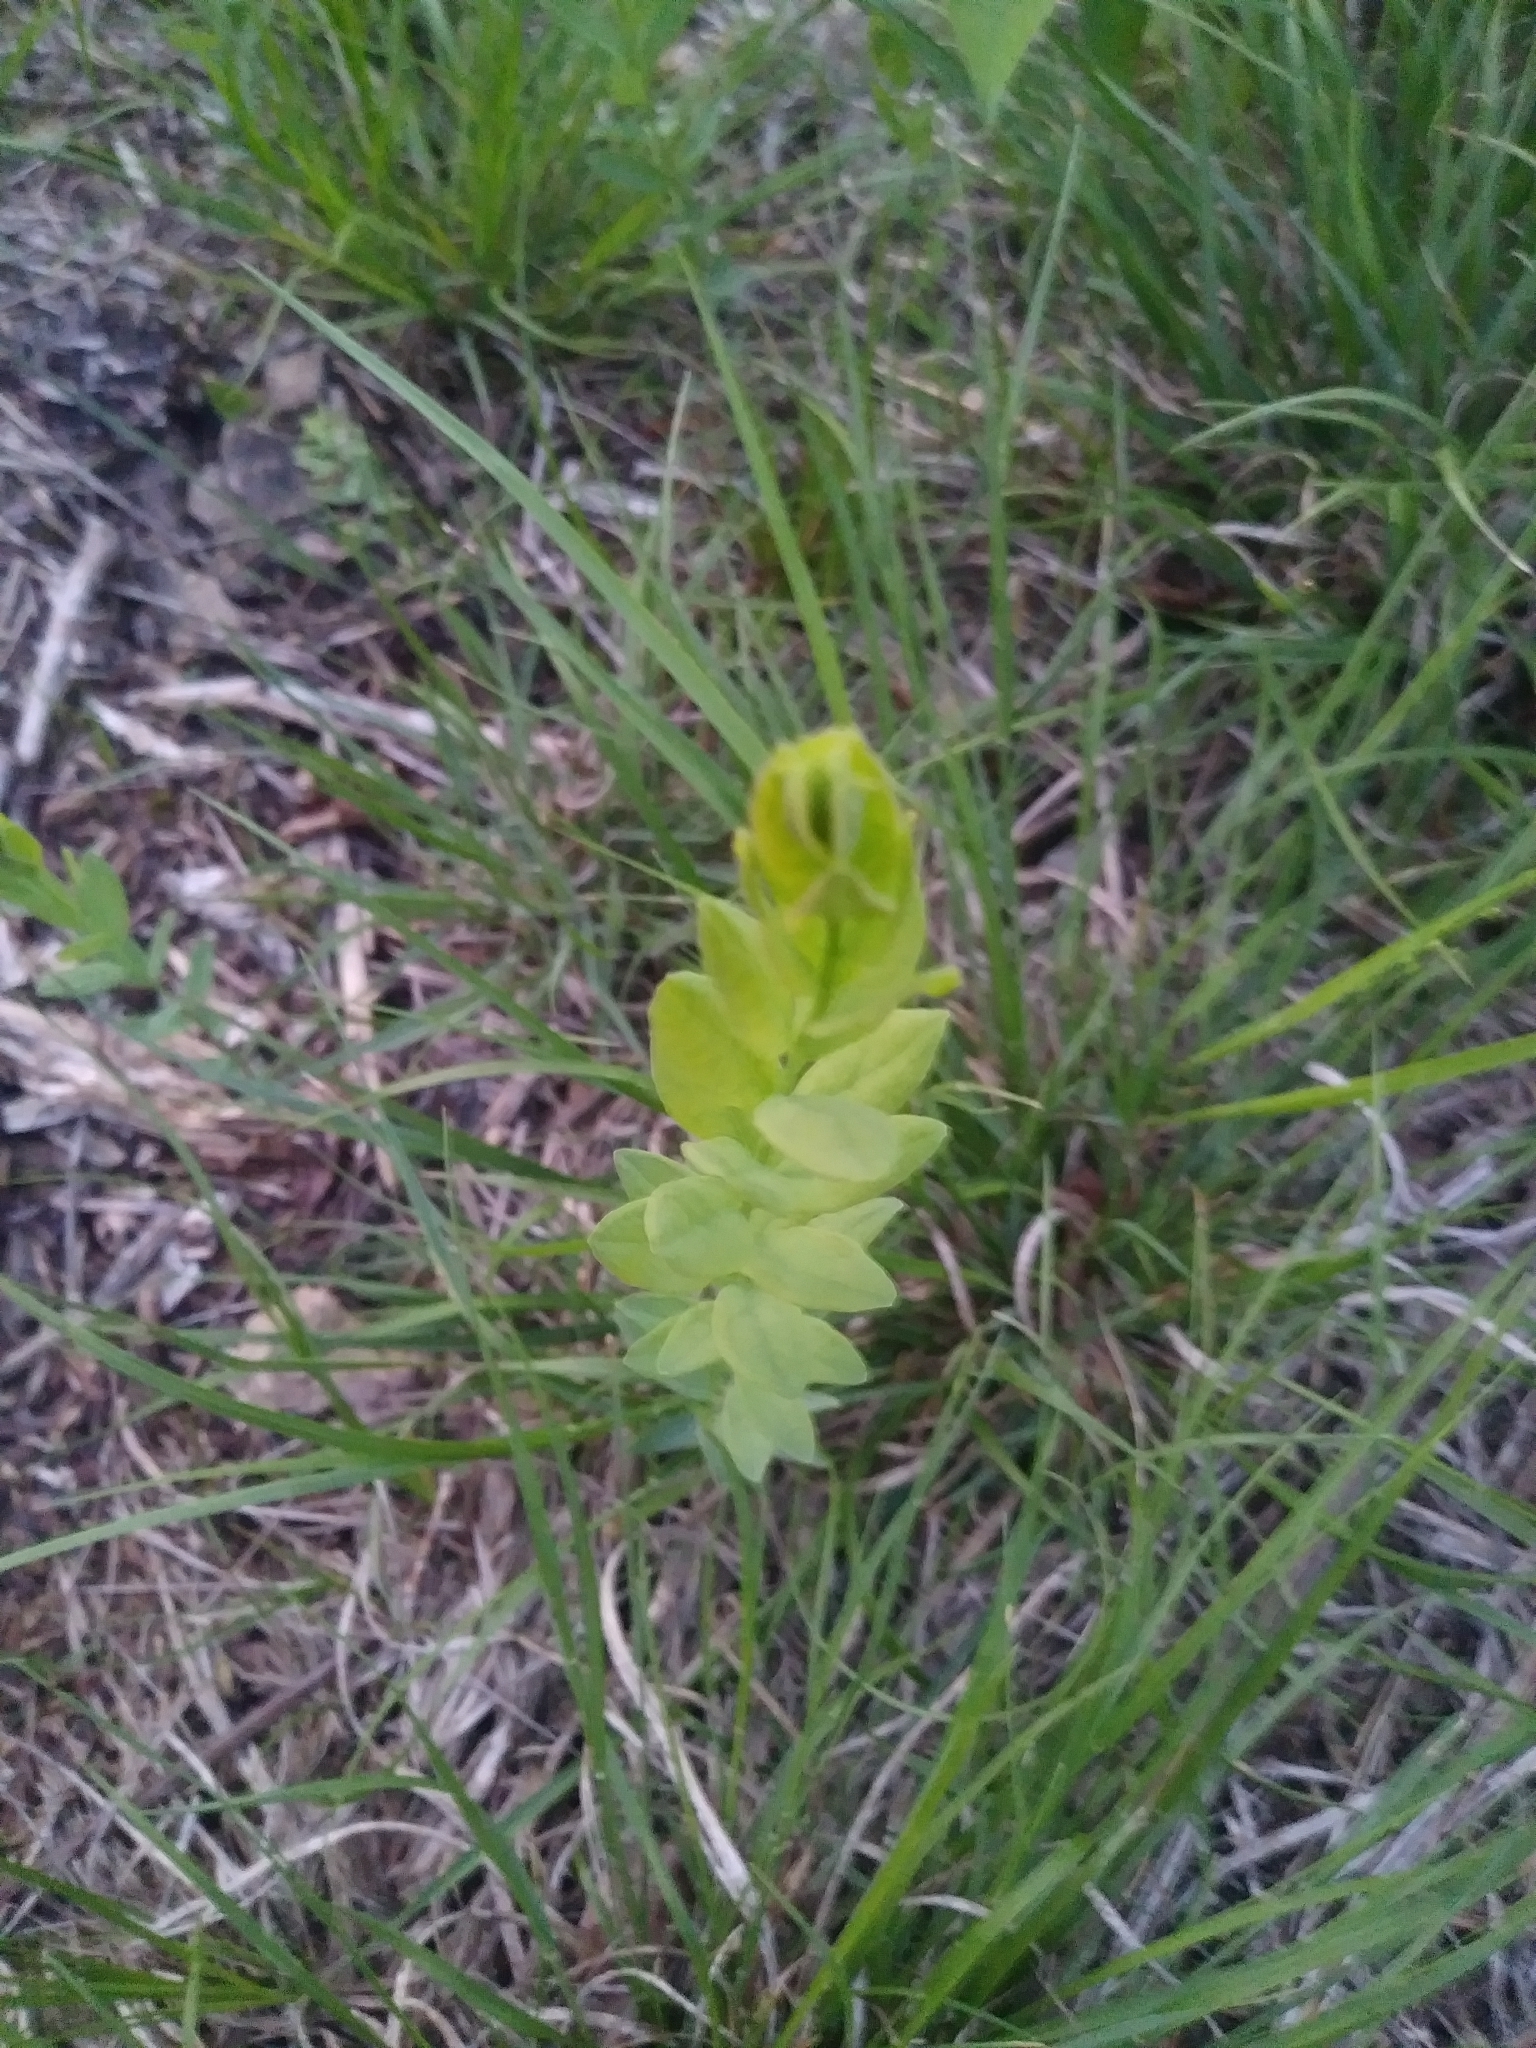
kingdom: Plantae
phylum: Tracheophyta
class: Magnoliopsida
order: Santalales
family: Comandraceae
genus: Comandra
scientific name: Comandra umbellata
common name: Bastard toadflax
